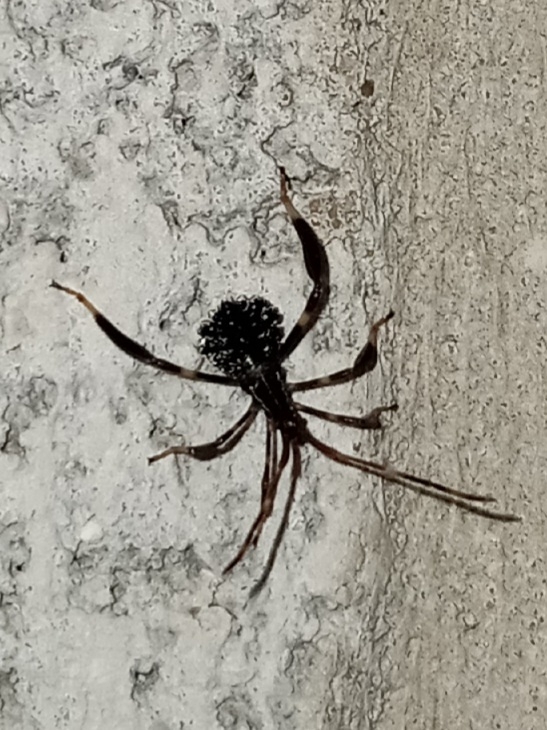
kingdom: Animalia
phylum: Arthropoda
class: Insecta
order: Hemiptera
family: Coreidae
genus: Acanthocephala
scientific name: Acanthocephala terminalis
